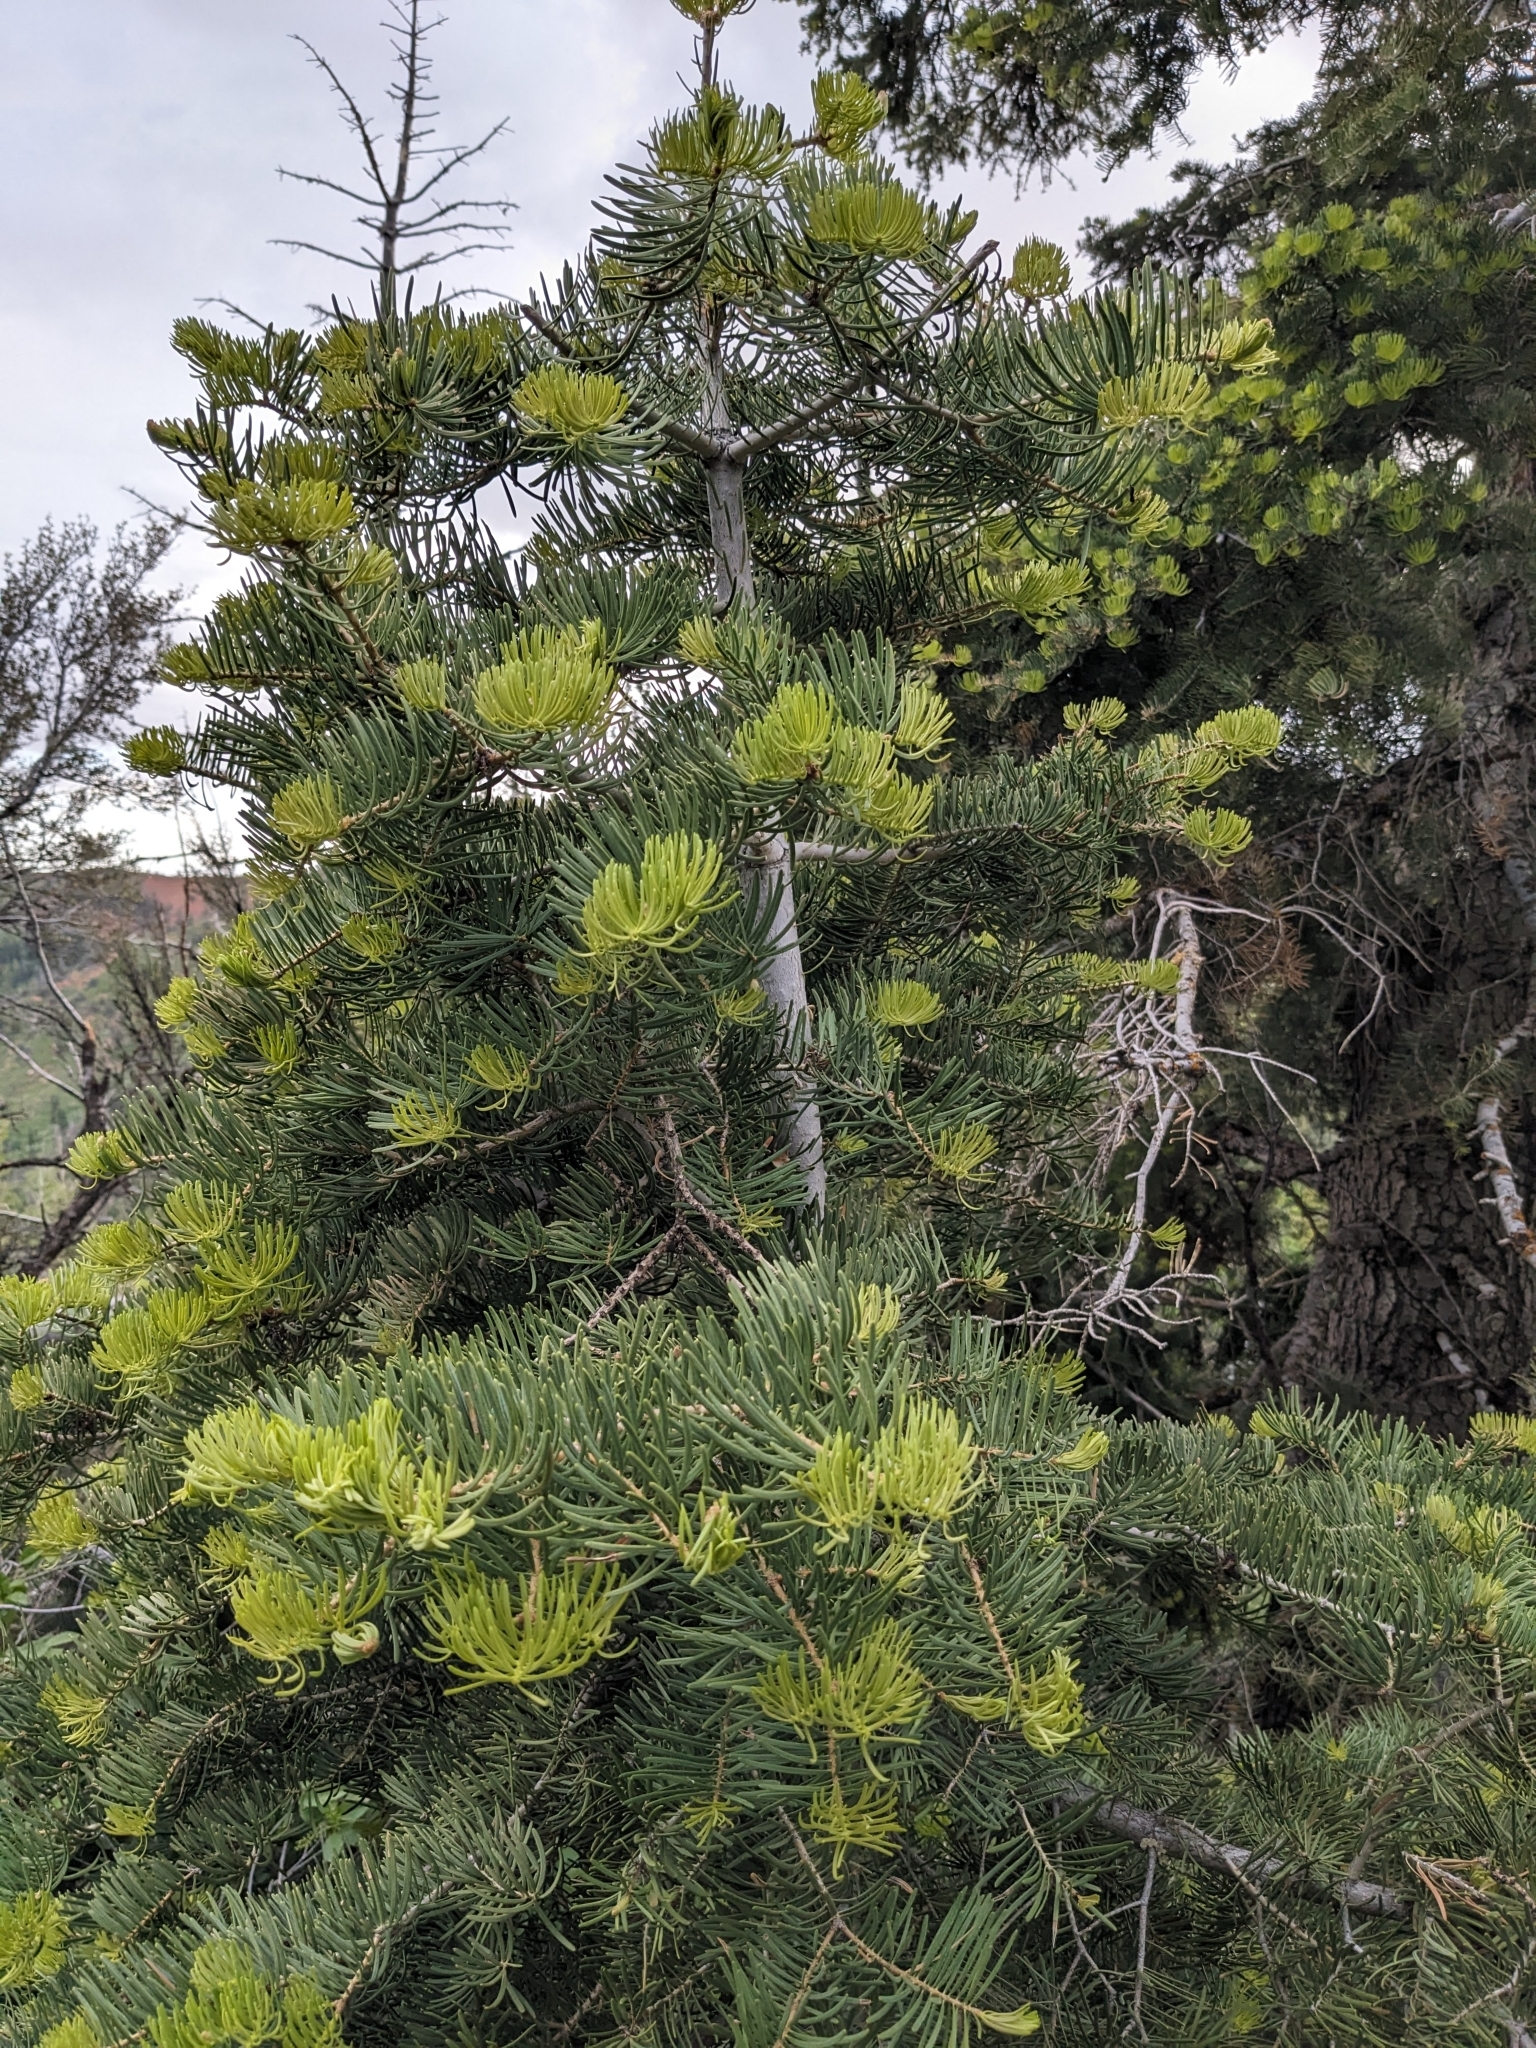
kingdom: Plantae
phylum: Tracheophyta
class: Pinopsida
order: Pinales
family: Pinaceae
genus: Abies
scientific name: Abies concolor
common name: Colorado fir
